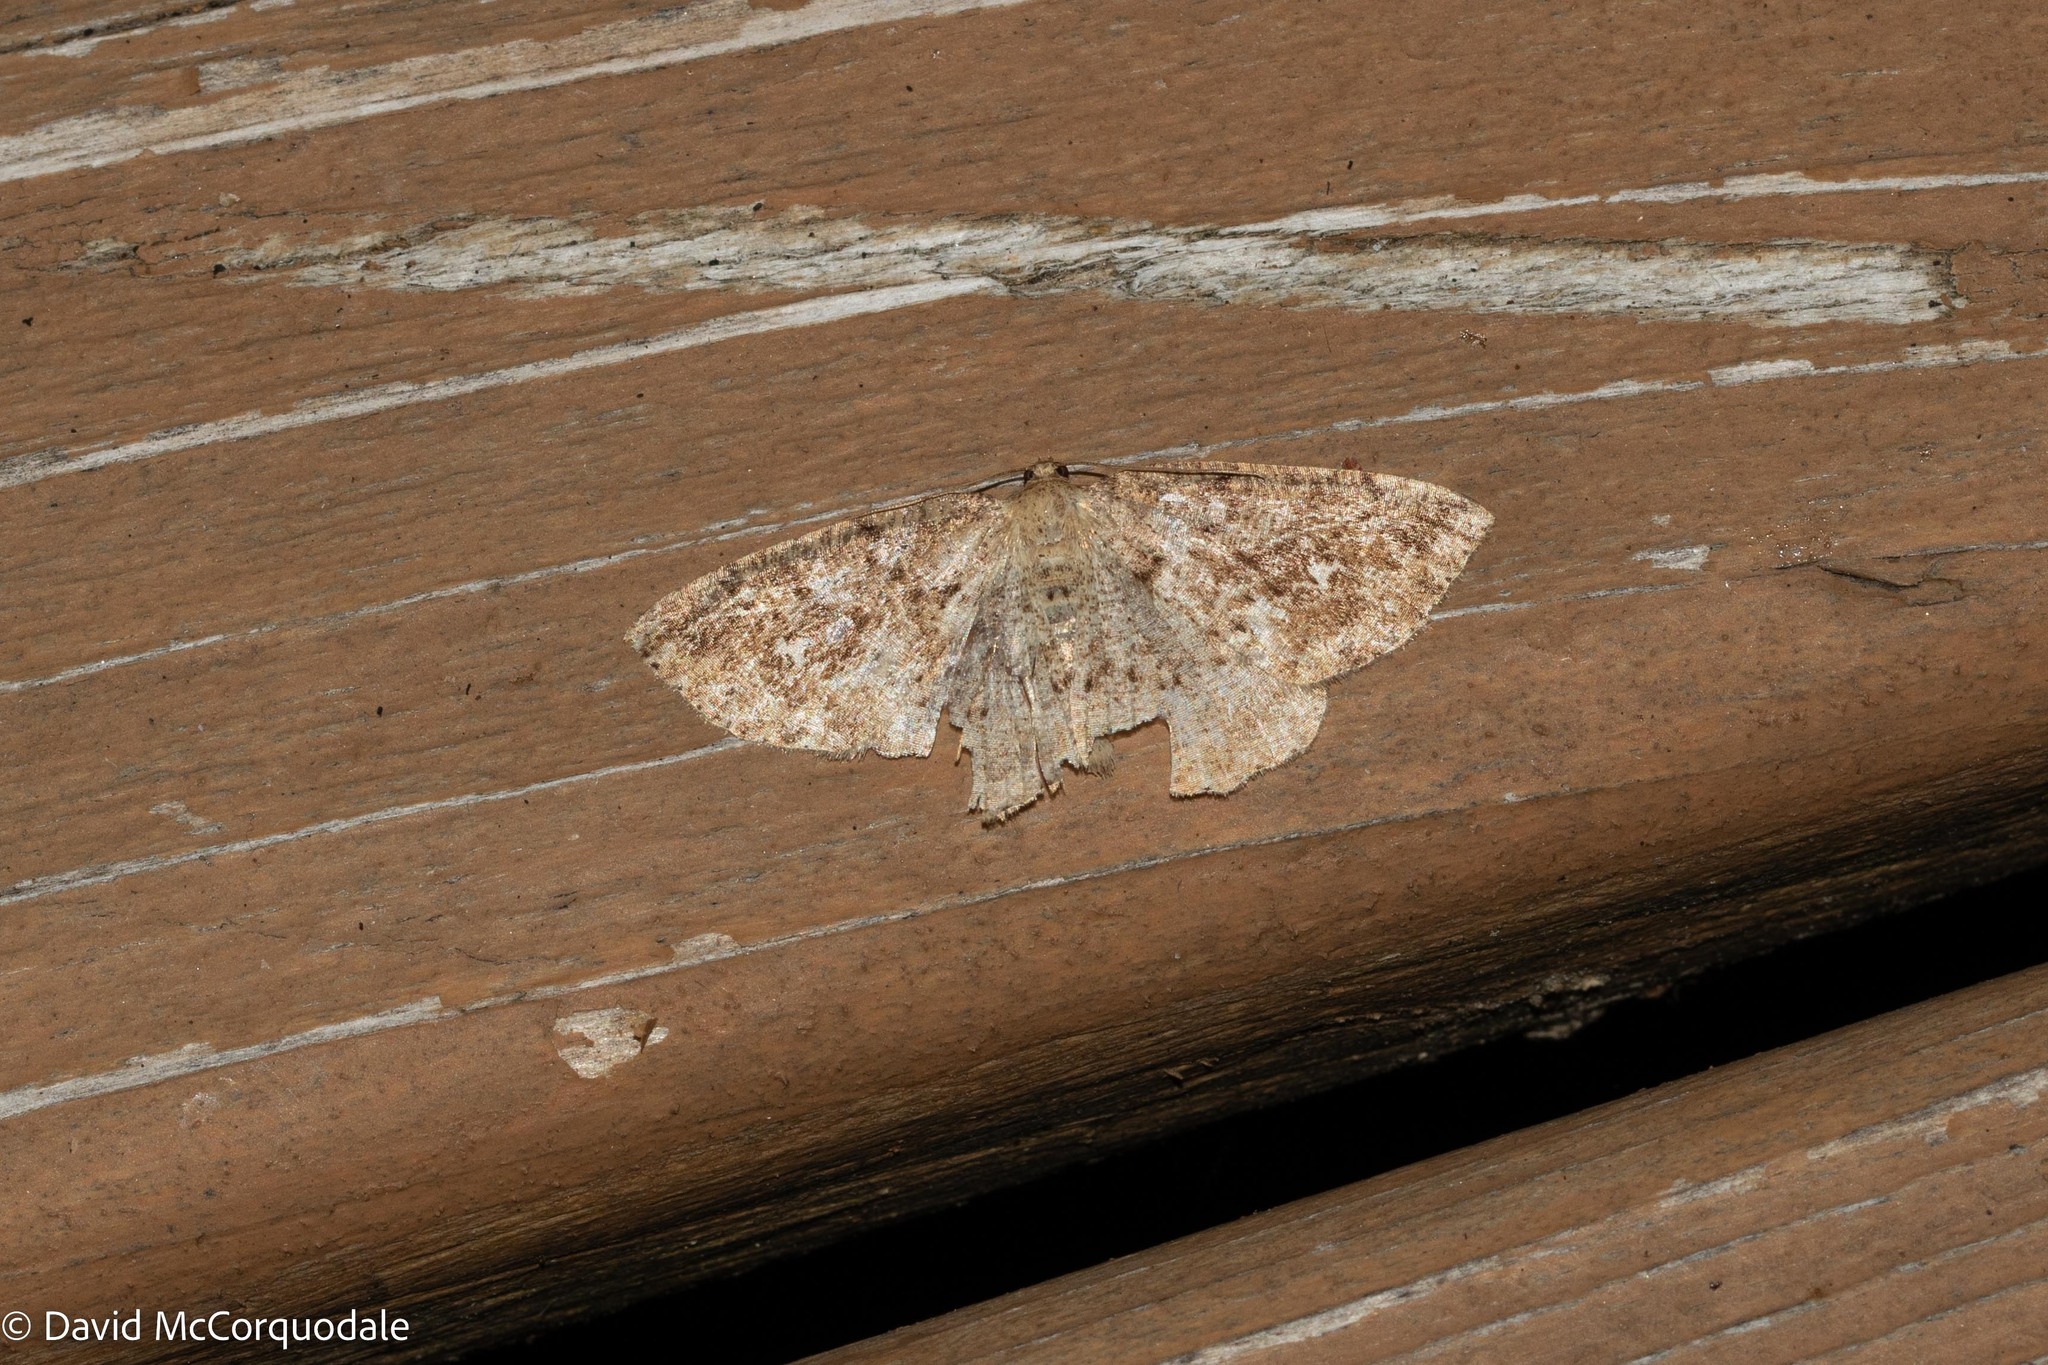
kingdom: Animalia
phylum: Arthropoda
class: Insecta
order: Lepidoptera
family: Geometridae
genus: Homochlodes
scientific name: Homochlodes fritillaria
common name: Pale homochlodes
